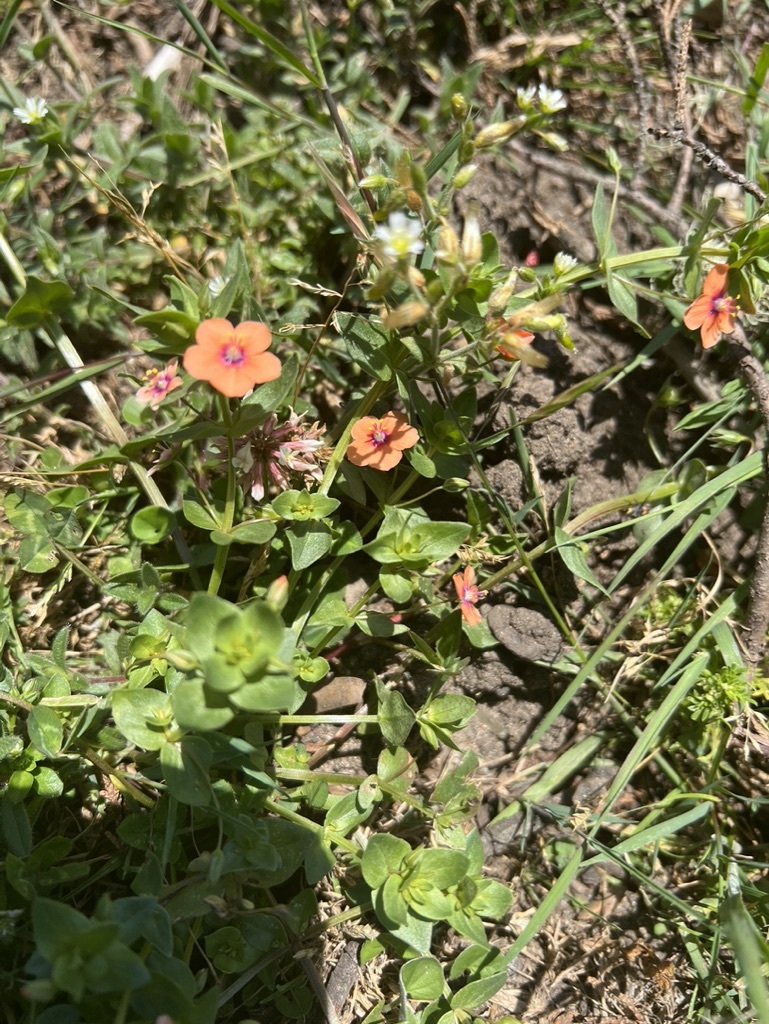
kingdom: Plantae
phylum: Tracheophyta
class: Magnoliopsida
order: Ericales
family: Primulaceae
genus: Lysimachia
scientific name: Lysimachia arvensis
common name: Scarlet pimpernel
